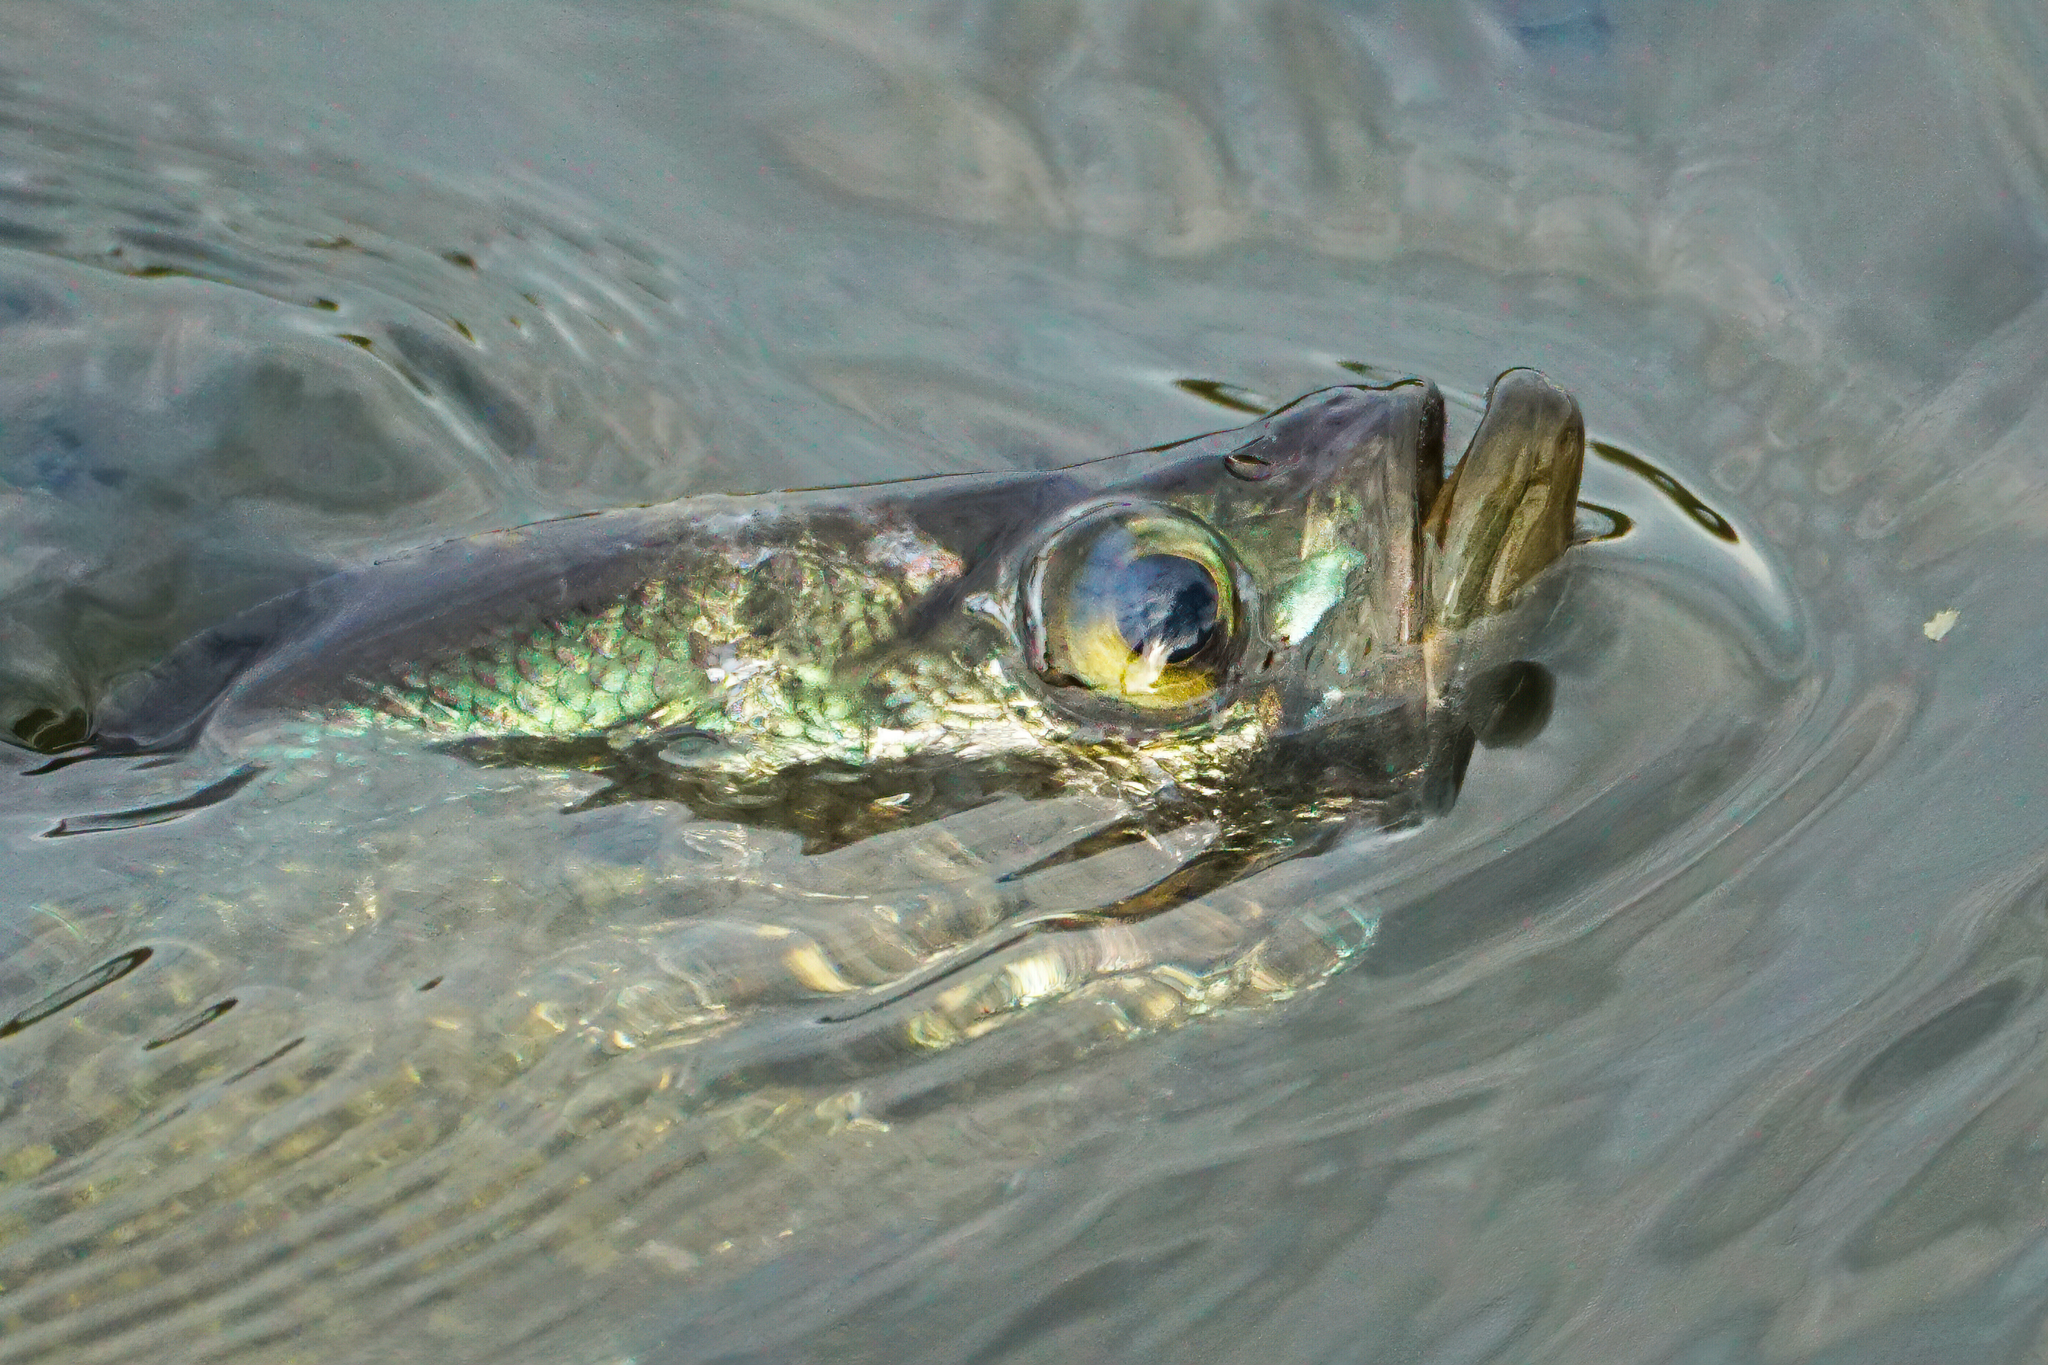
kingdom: Animalia
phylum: Chordata
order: Perciformes
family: Centrarchidae
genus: Pomoxis
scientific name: Pomoxis nigromaculatus
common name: Black crappie
